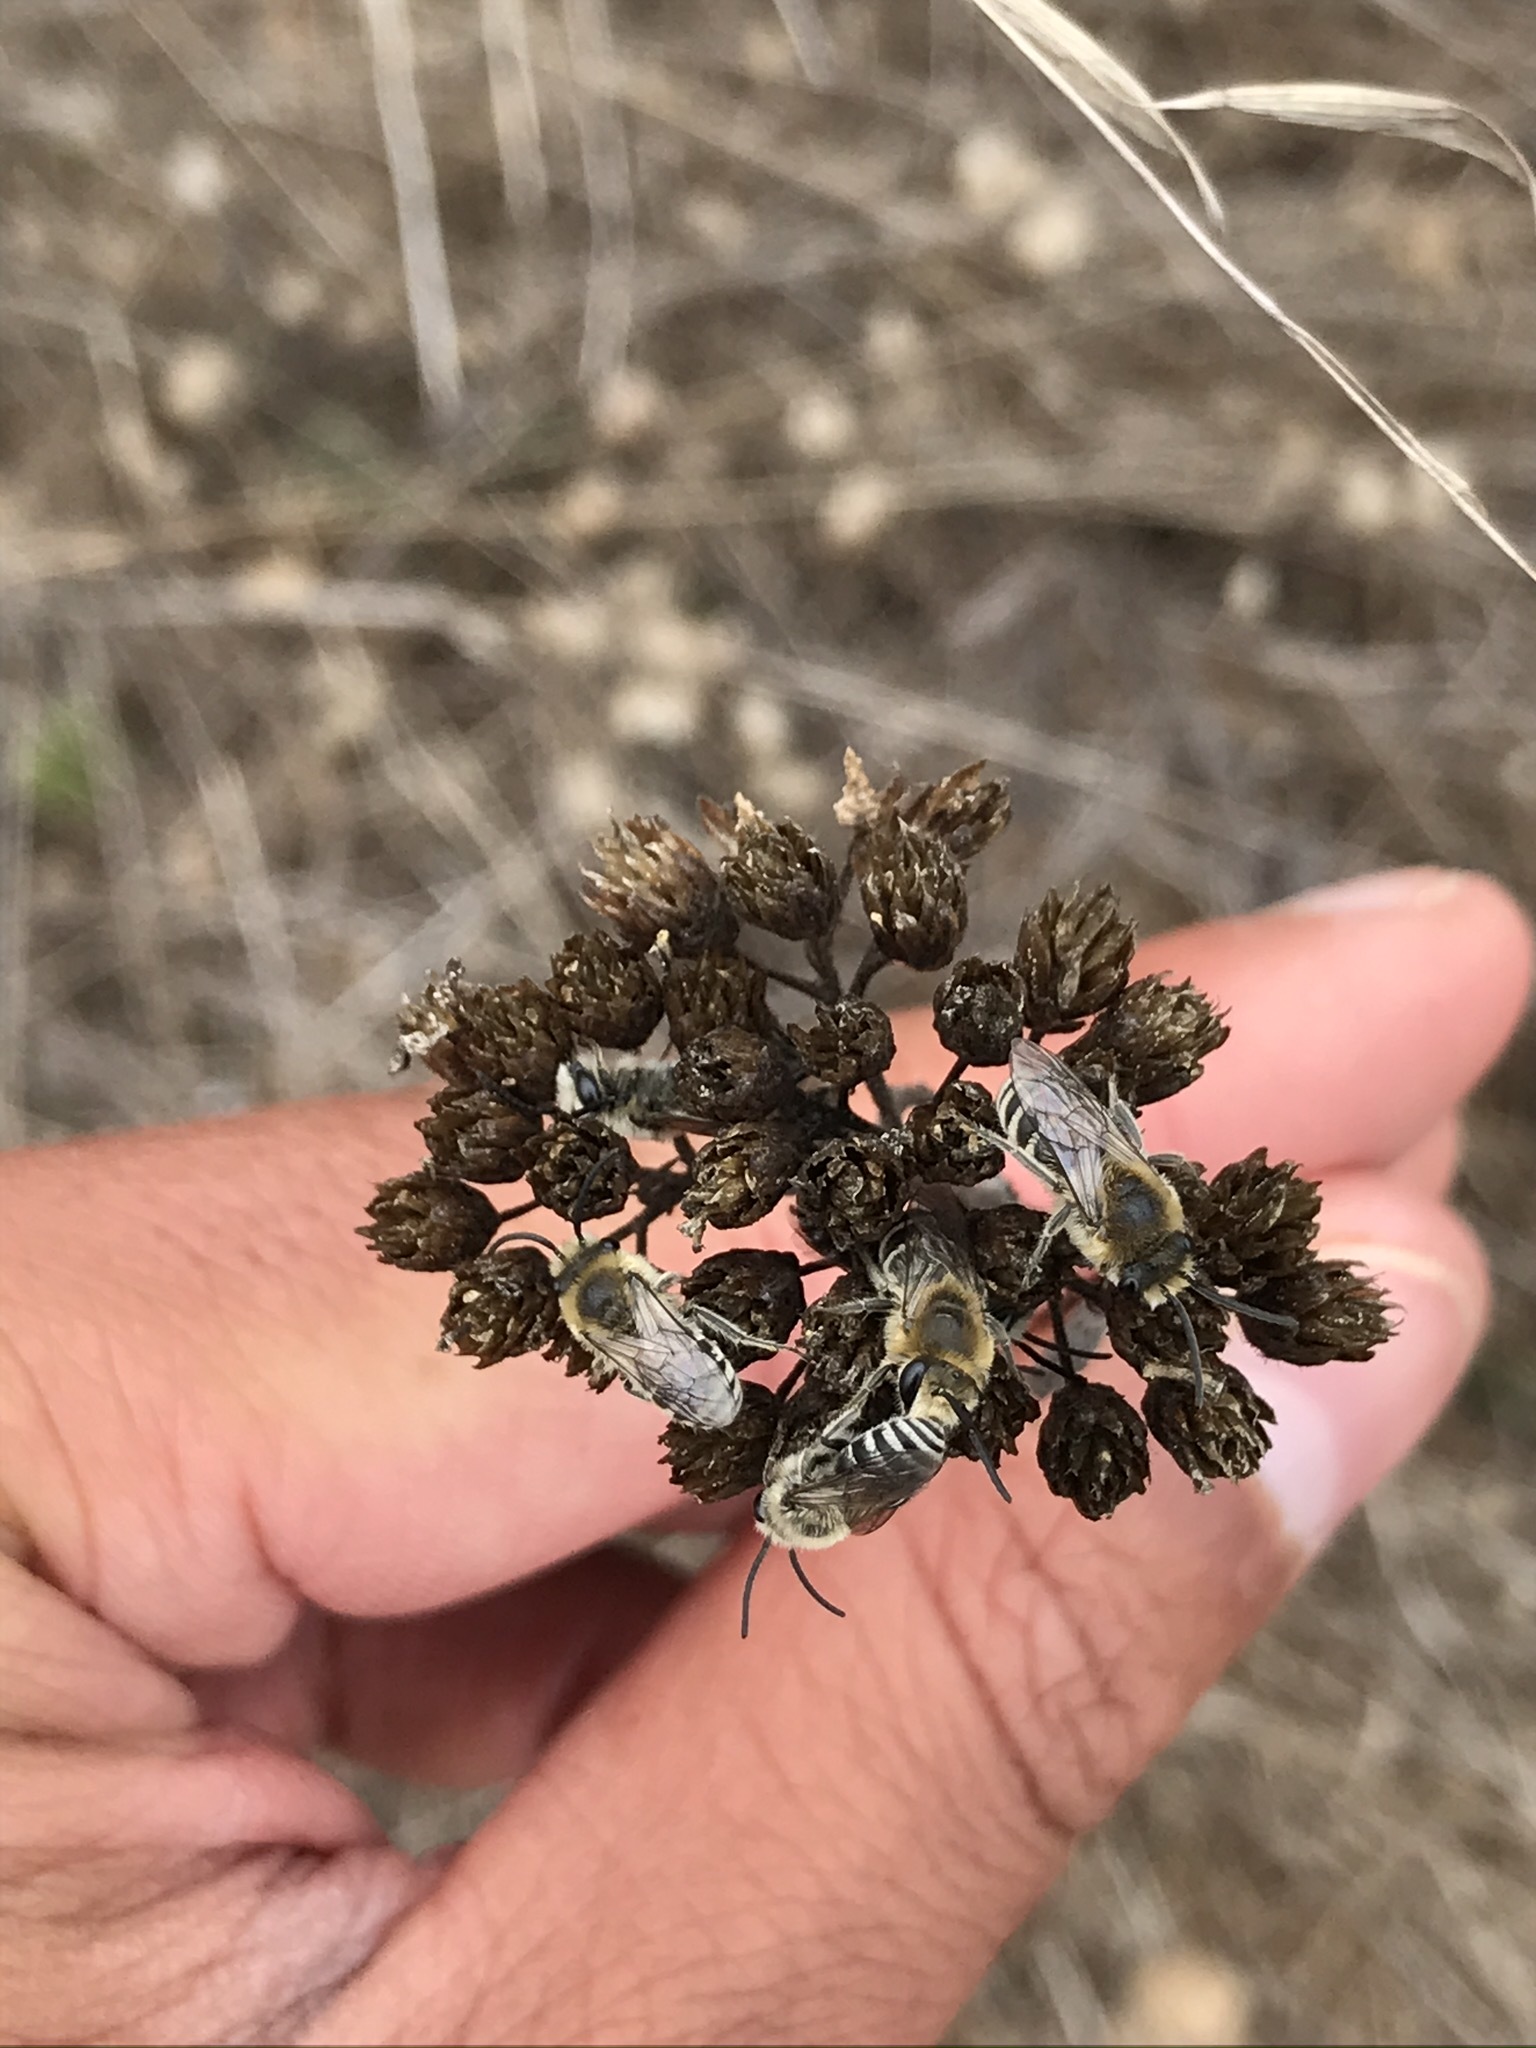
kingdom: Animalia
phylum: Arthropoda
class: Insecta
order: Hymenoptera
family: Colletidae
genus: Colletes
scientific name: Colletes
